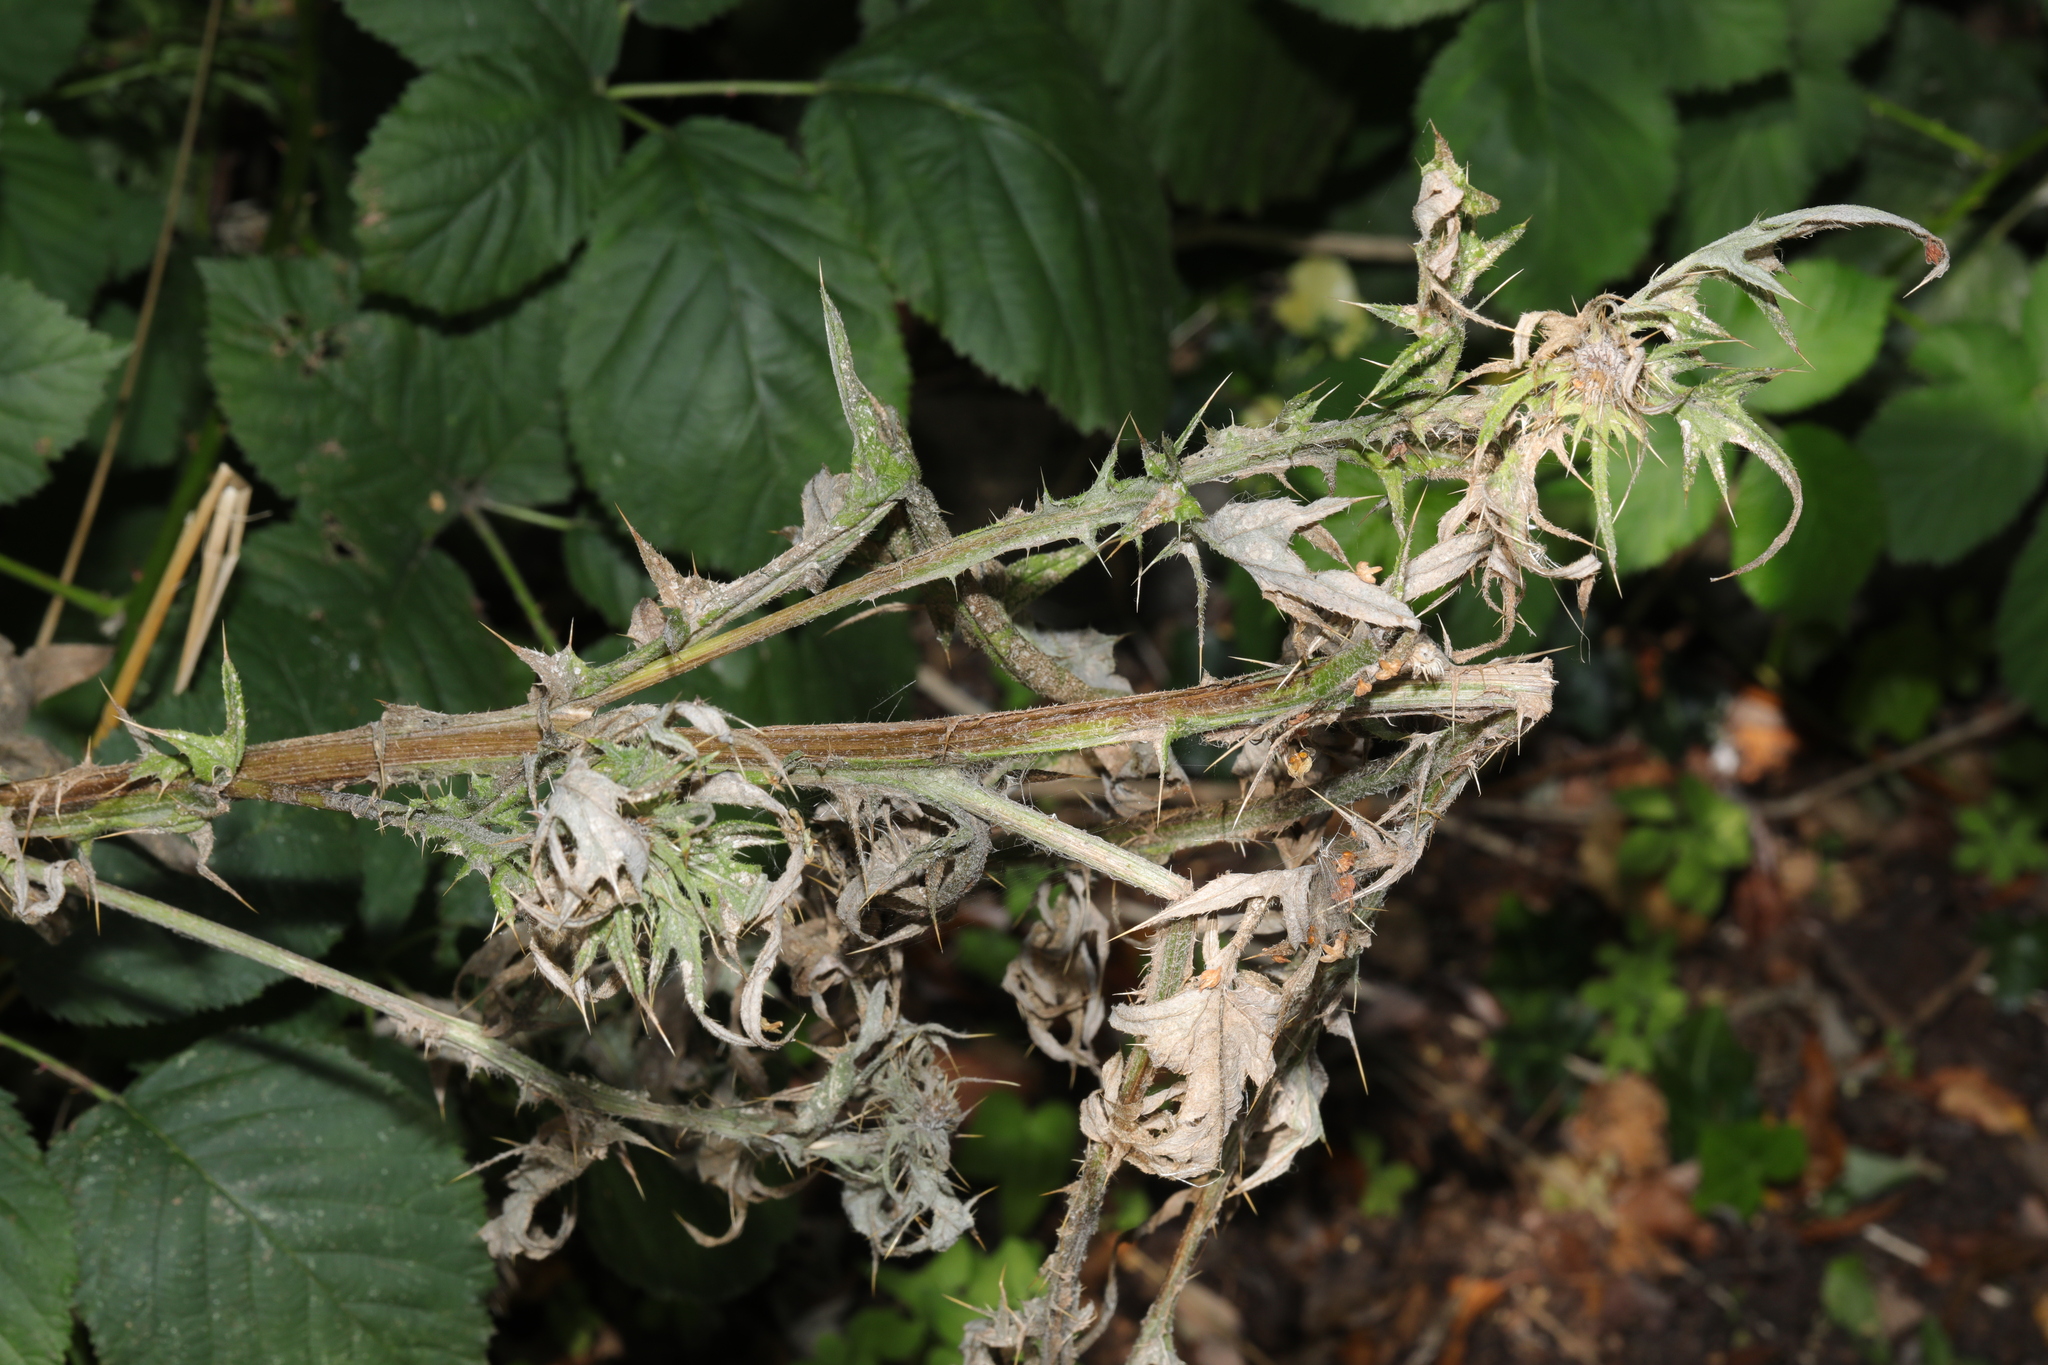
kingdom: Plantae
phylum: Tracheophyta
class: Magnoliopsida
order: Asterales
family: Asteraceae
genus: Cirsium
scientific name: Cirsium vulgare
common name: Bull thistle
